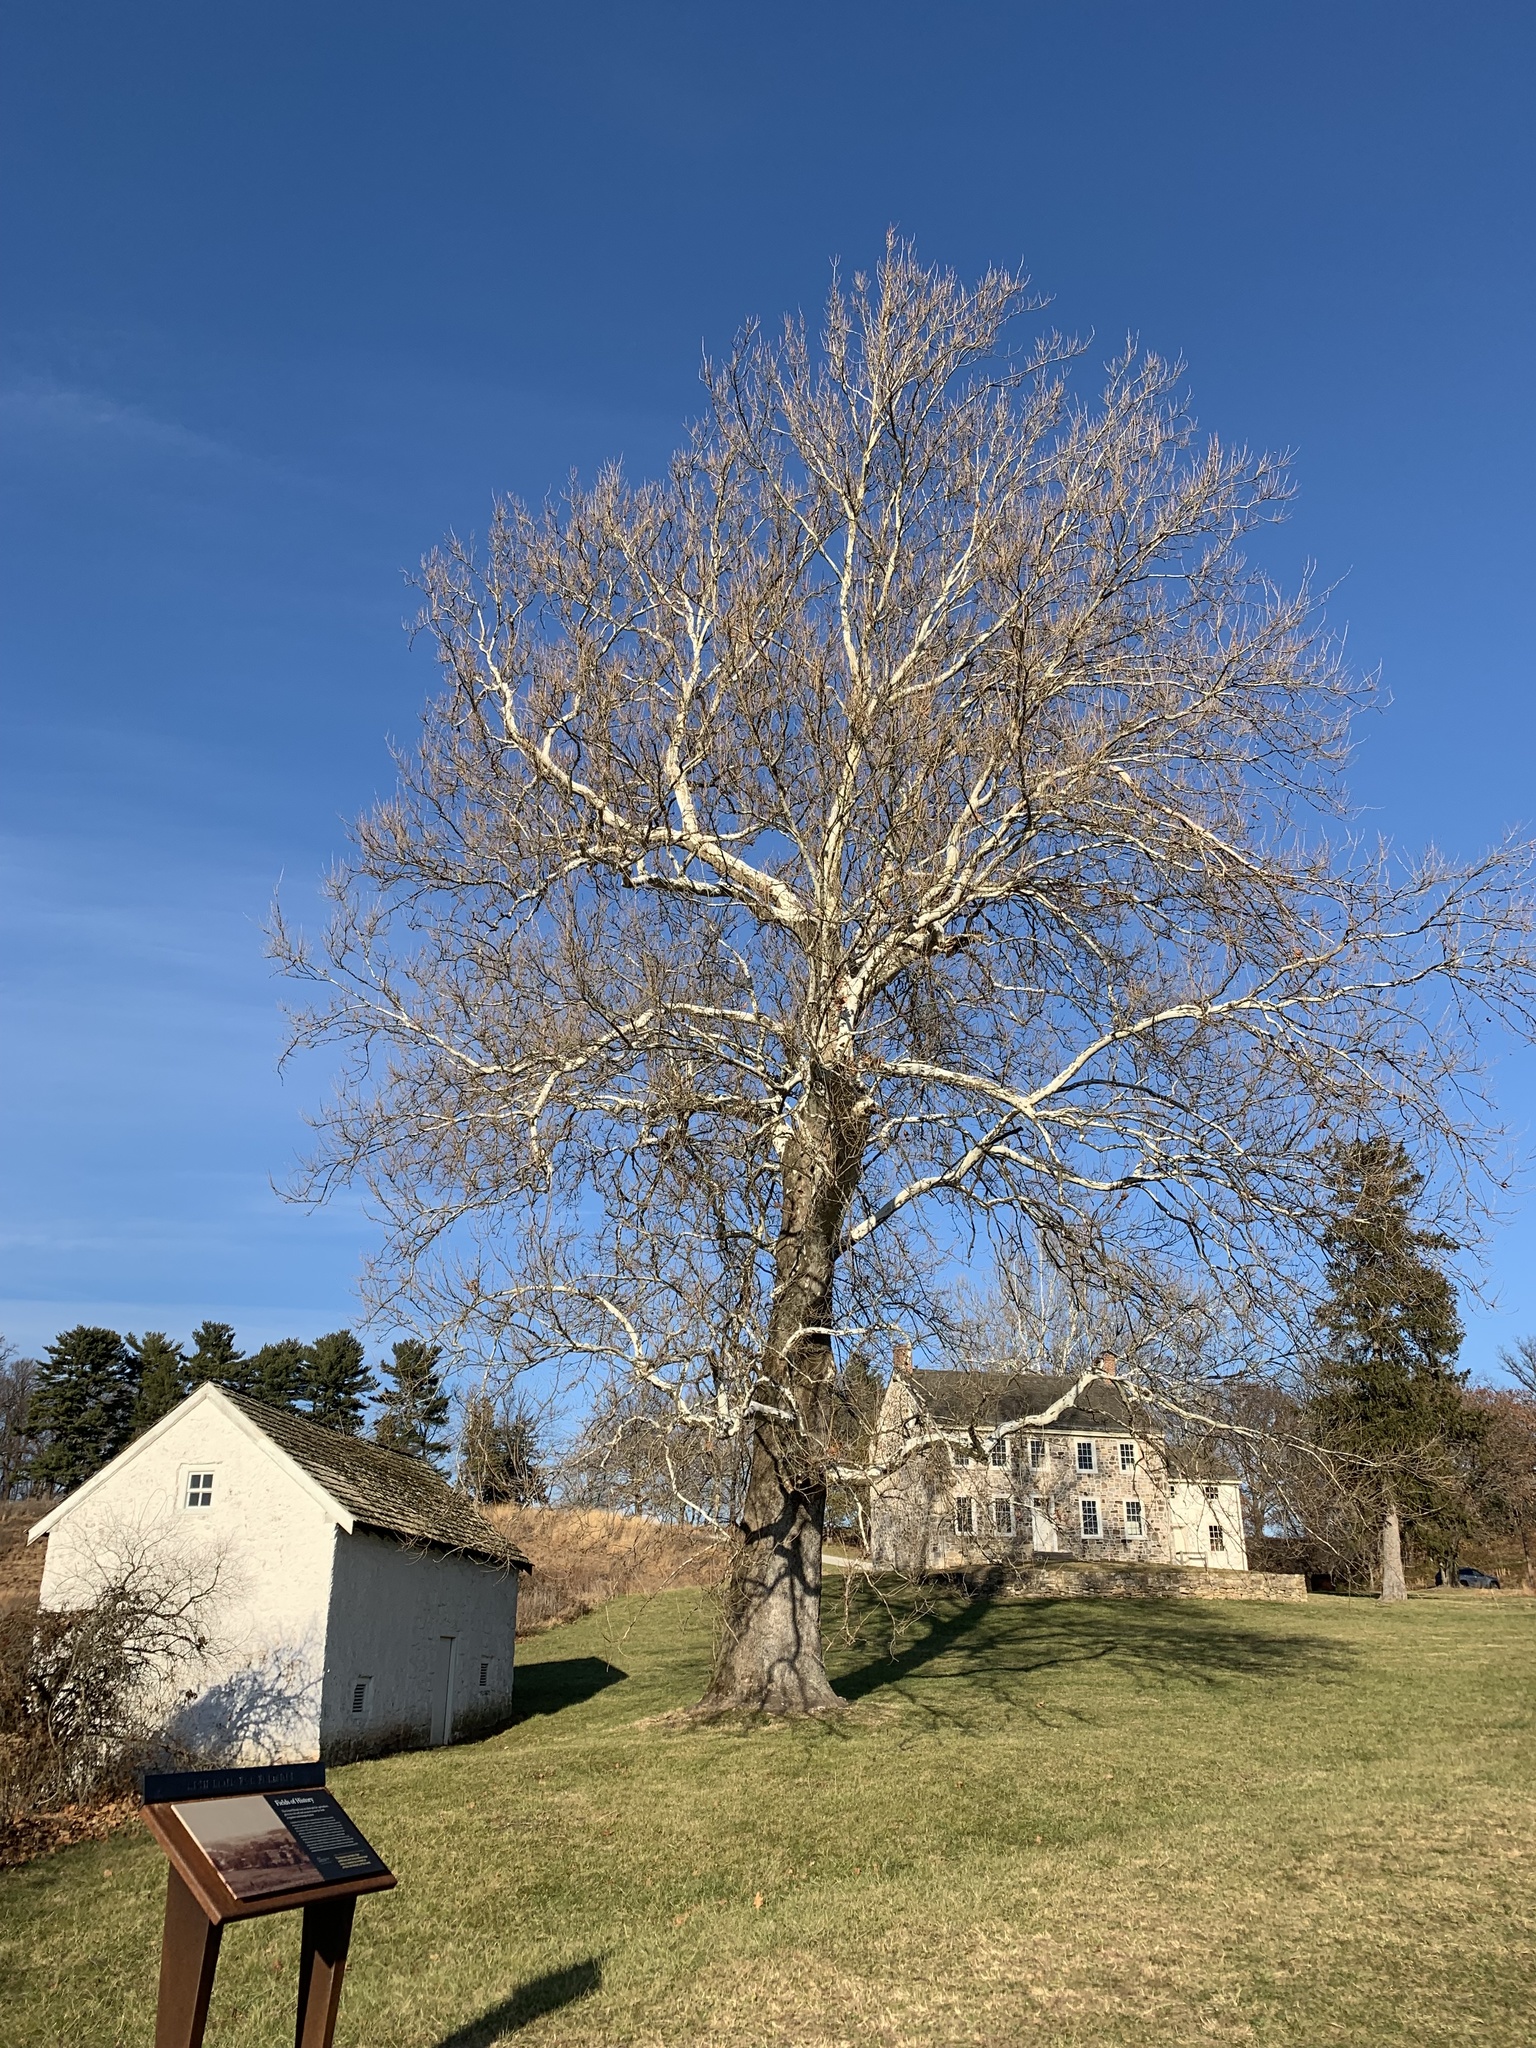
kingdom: Plantae
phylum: Tracheophyta
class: Magnoliopsida
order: Proteales
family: Platanaceae
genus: Platanus
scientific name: Platanus occidentalis
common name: American sycamore
